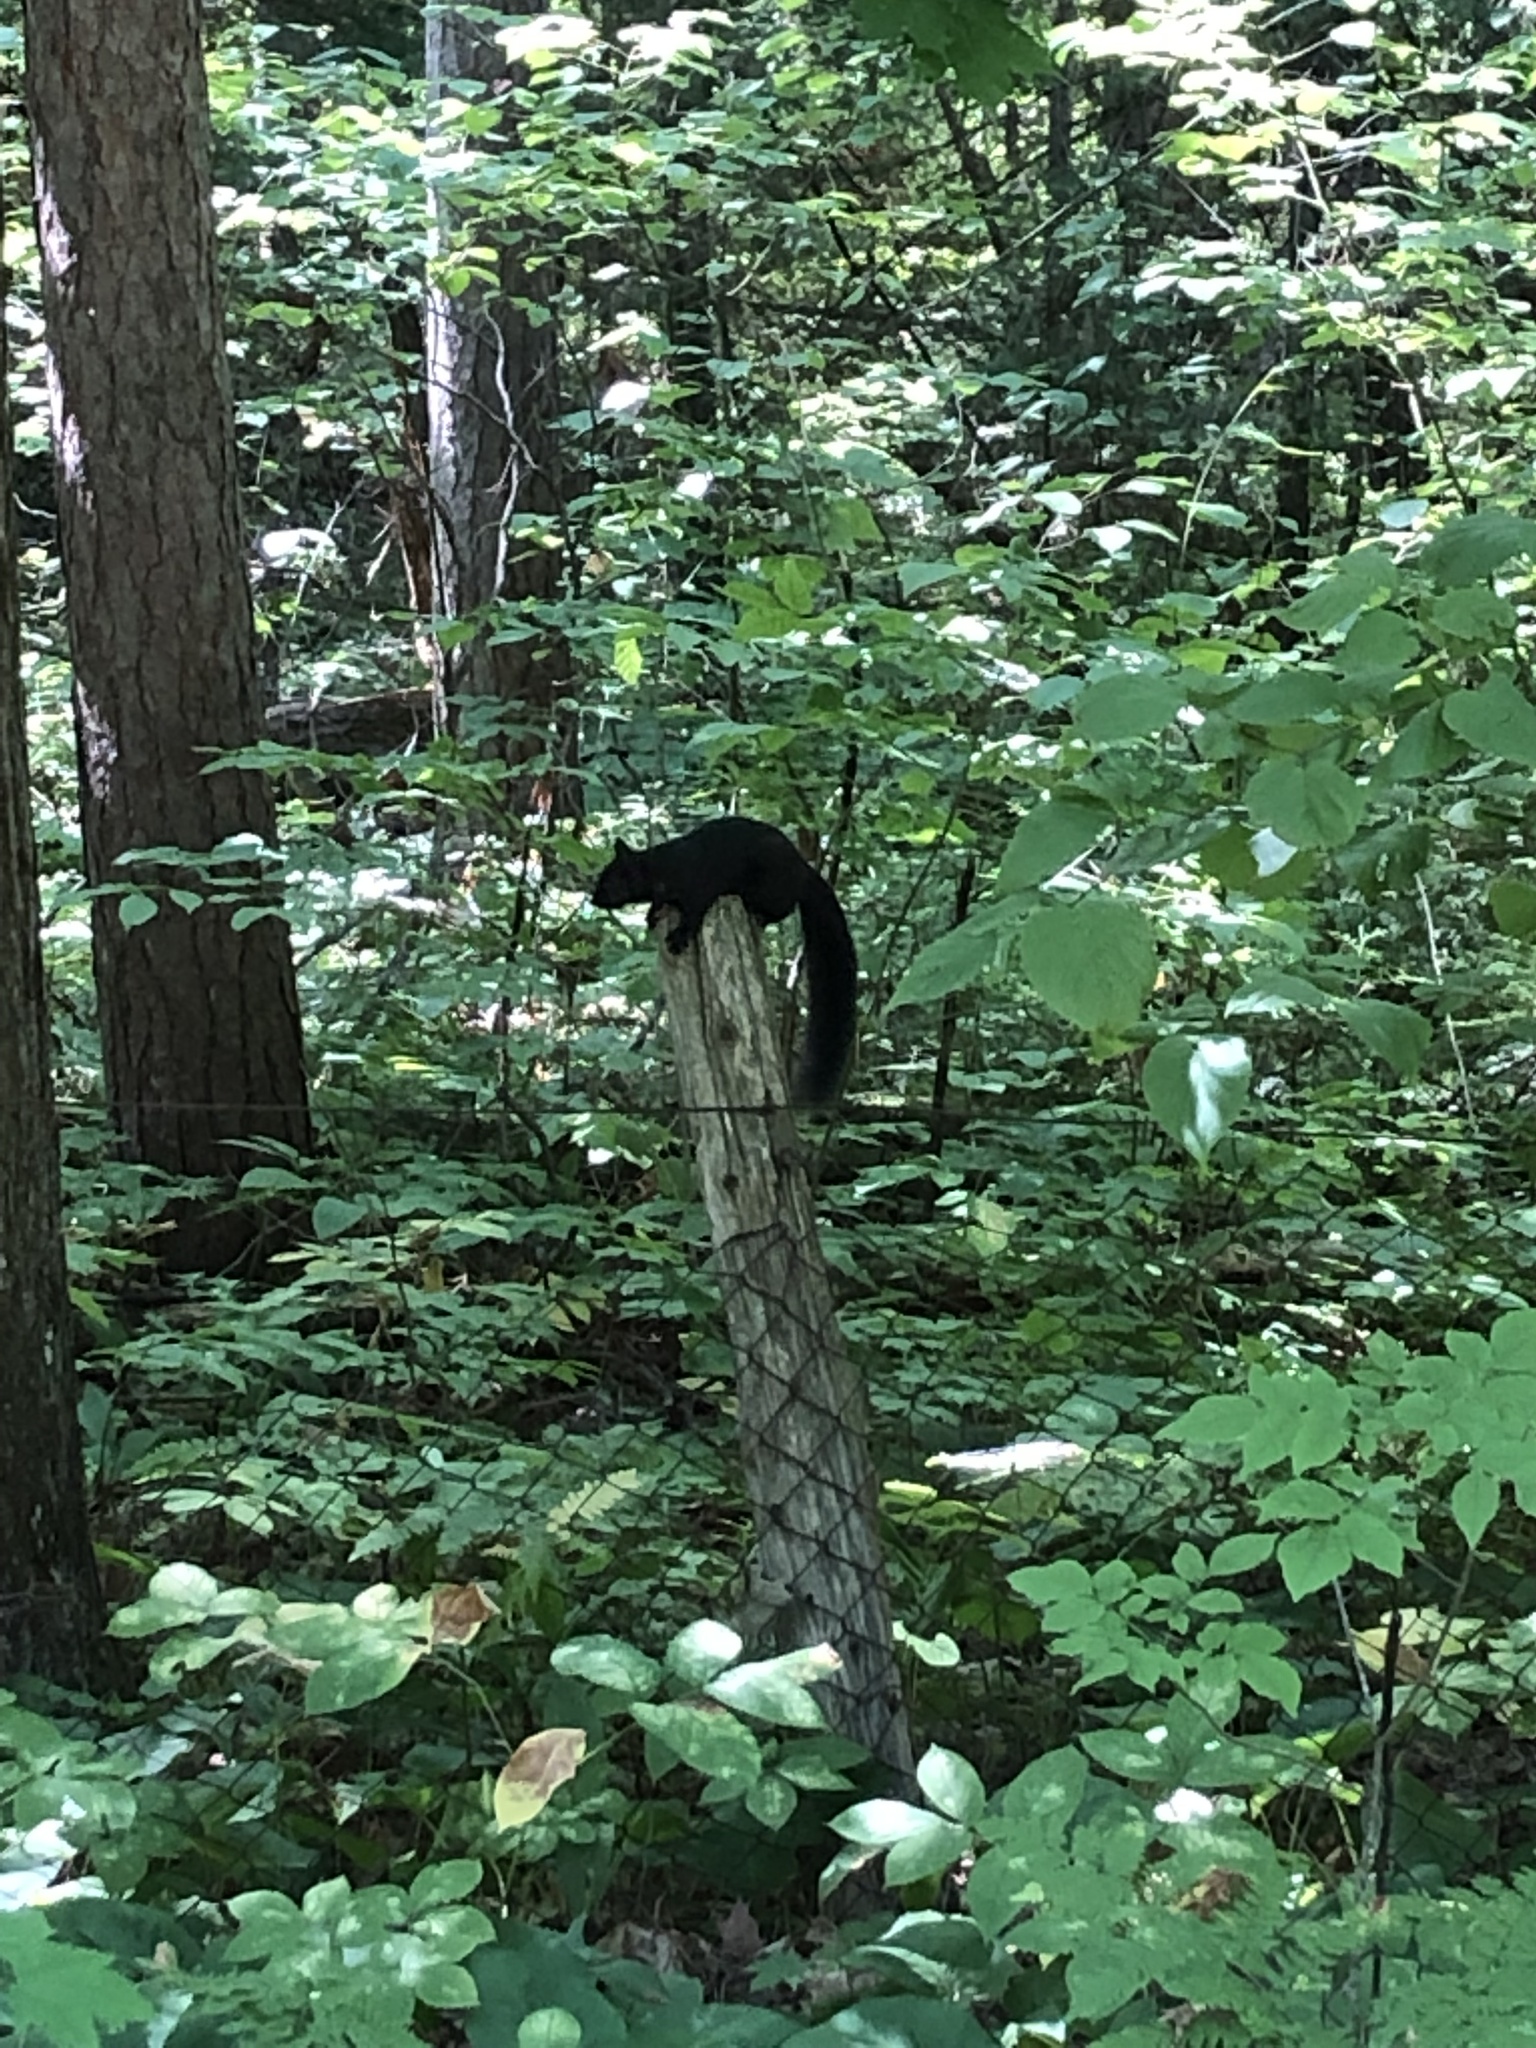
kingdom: Animalia
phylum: Chordata
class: Mammalia
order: Rodentia
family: Sciuridae
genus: Sciurus
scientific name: Sciurus carolinensis
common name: Eastern gray squirrel
